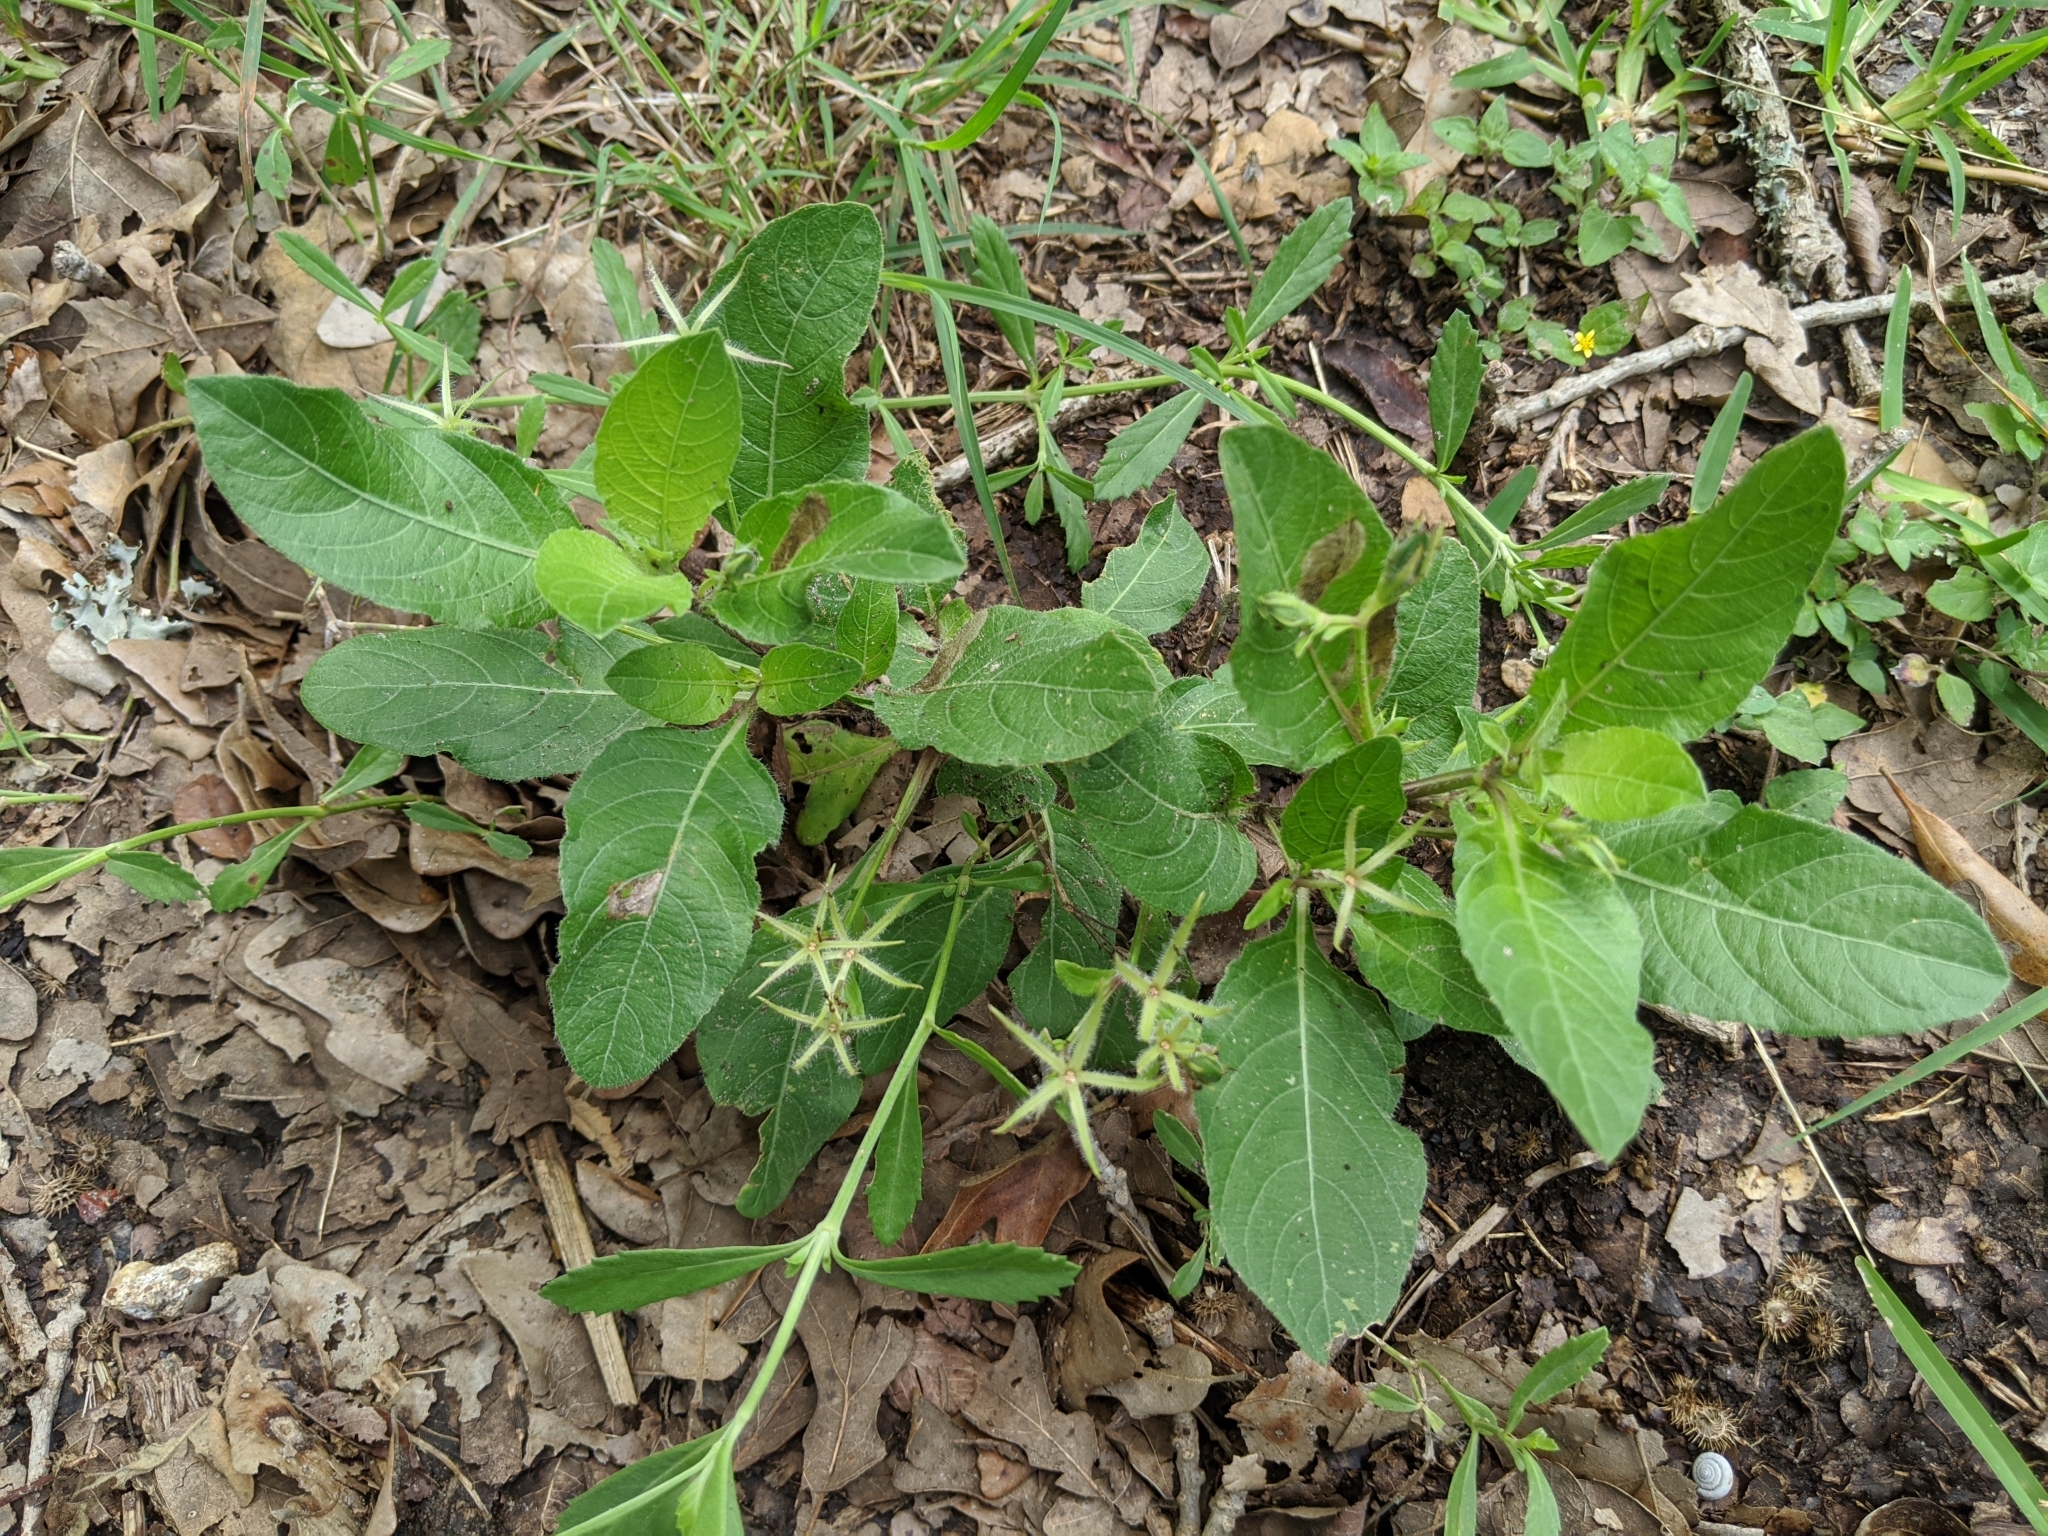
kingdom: Plantae
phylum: Tracheophyta
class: Magnoliopsida
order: Lamiales
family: Acanthaceae
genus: Ruellia
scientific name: Ruellia ciliatiflora
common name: Hairyflower wild petunia
